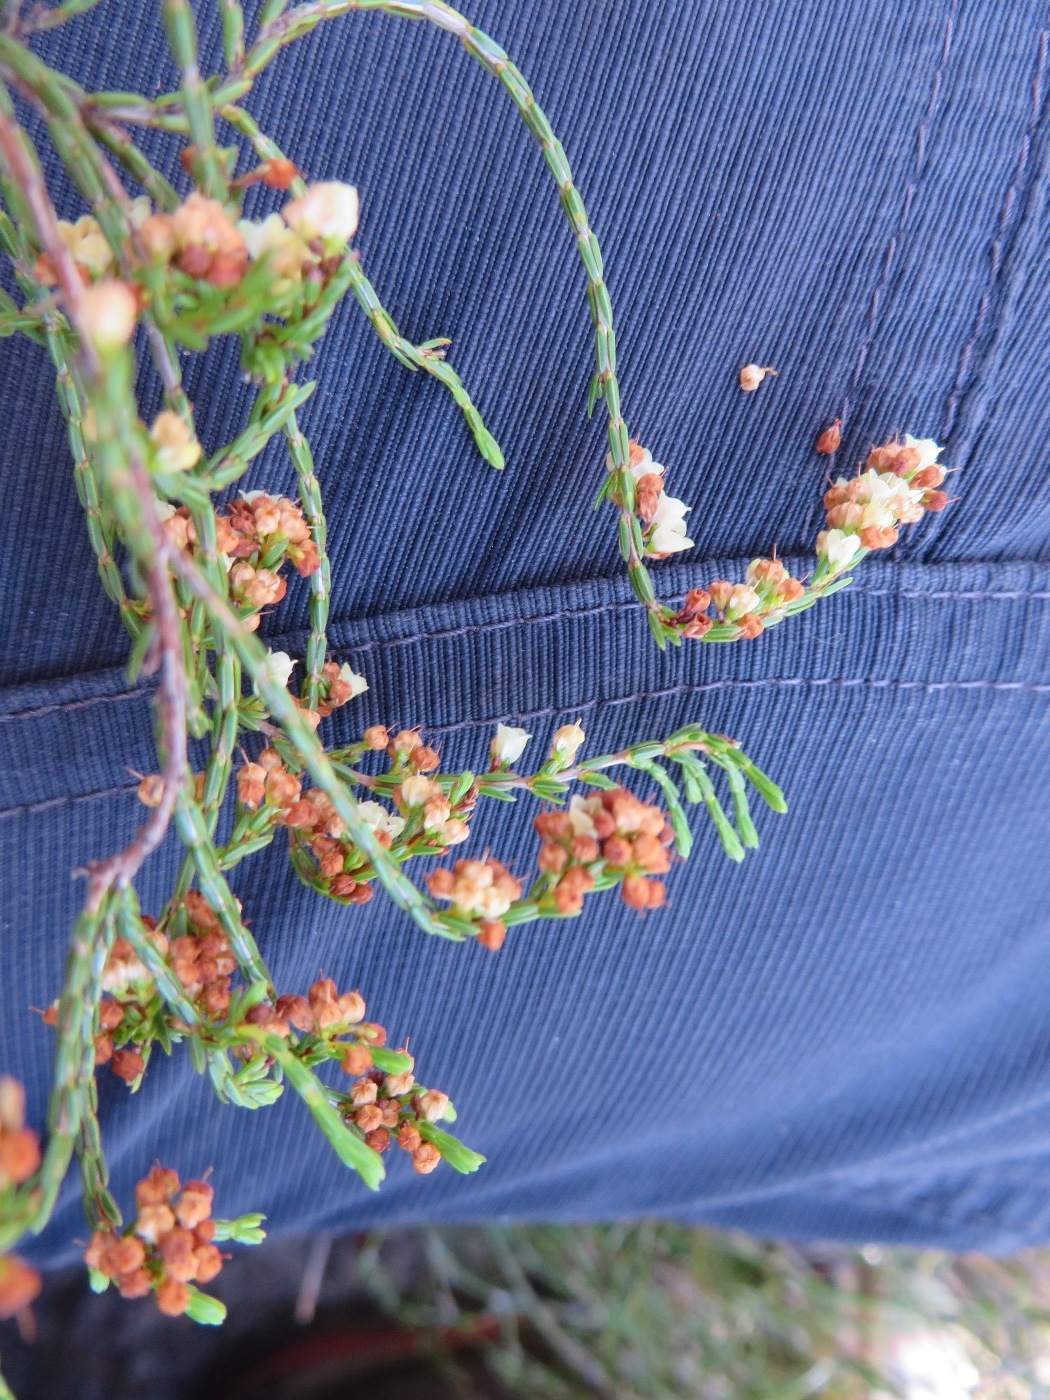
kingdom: Plantae
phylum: Tracheophyta
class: Magnoliopsida
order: Ericales
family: Ericaceae
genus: Erica
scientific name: Erica multiflexuosa
